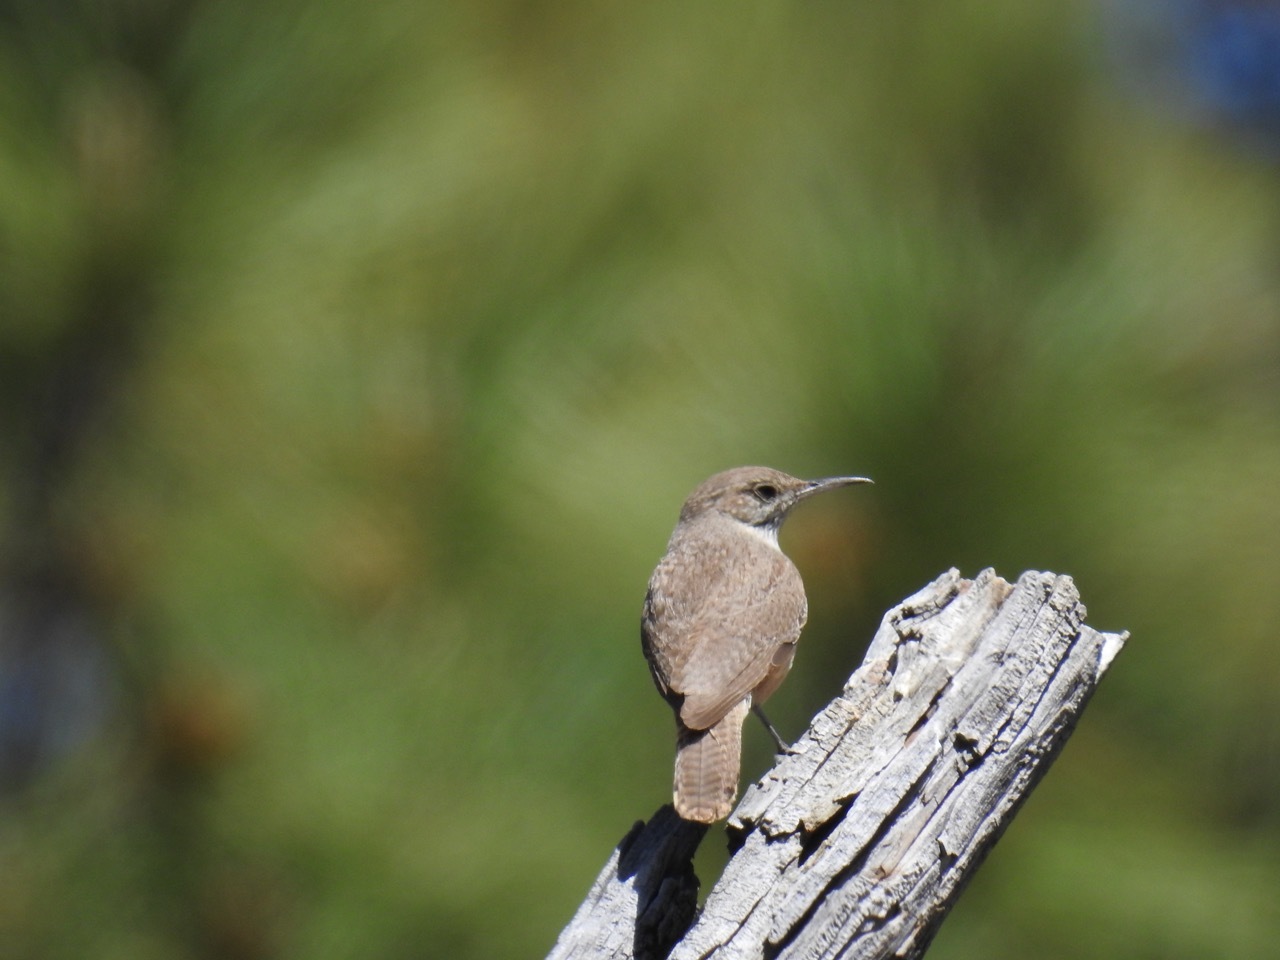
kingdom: Animalia
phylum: Chordata
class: Aves
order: Passeriformes
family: Troglodytidae
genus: Salpinctes
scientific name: Salpinctes obsoletus
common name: Rock wren
